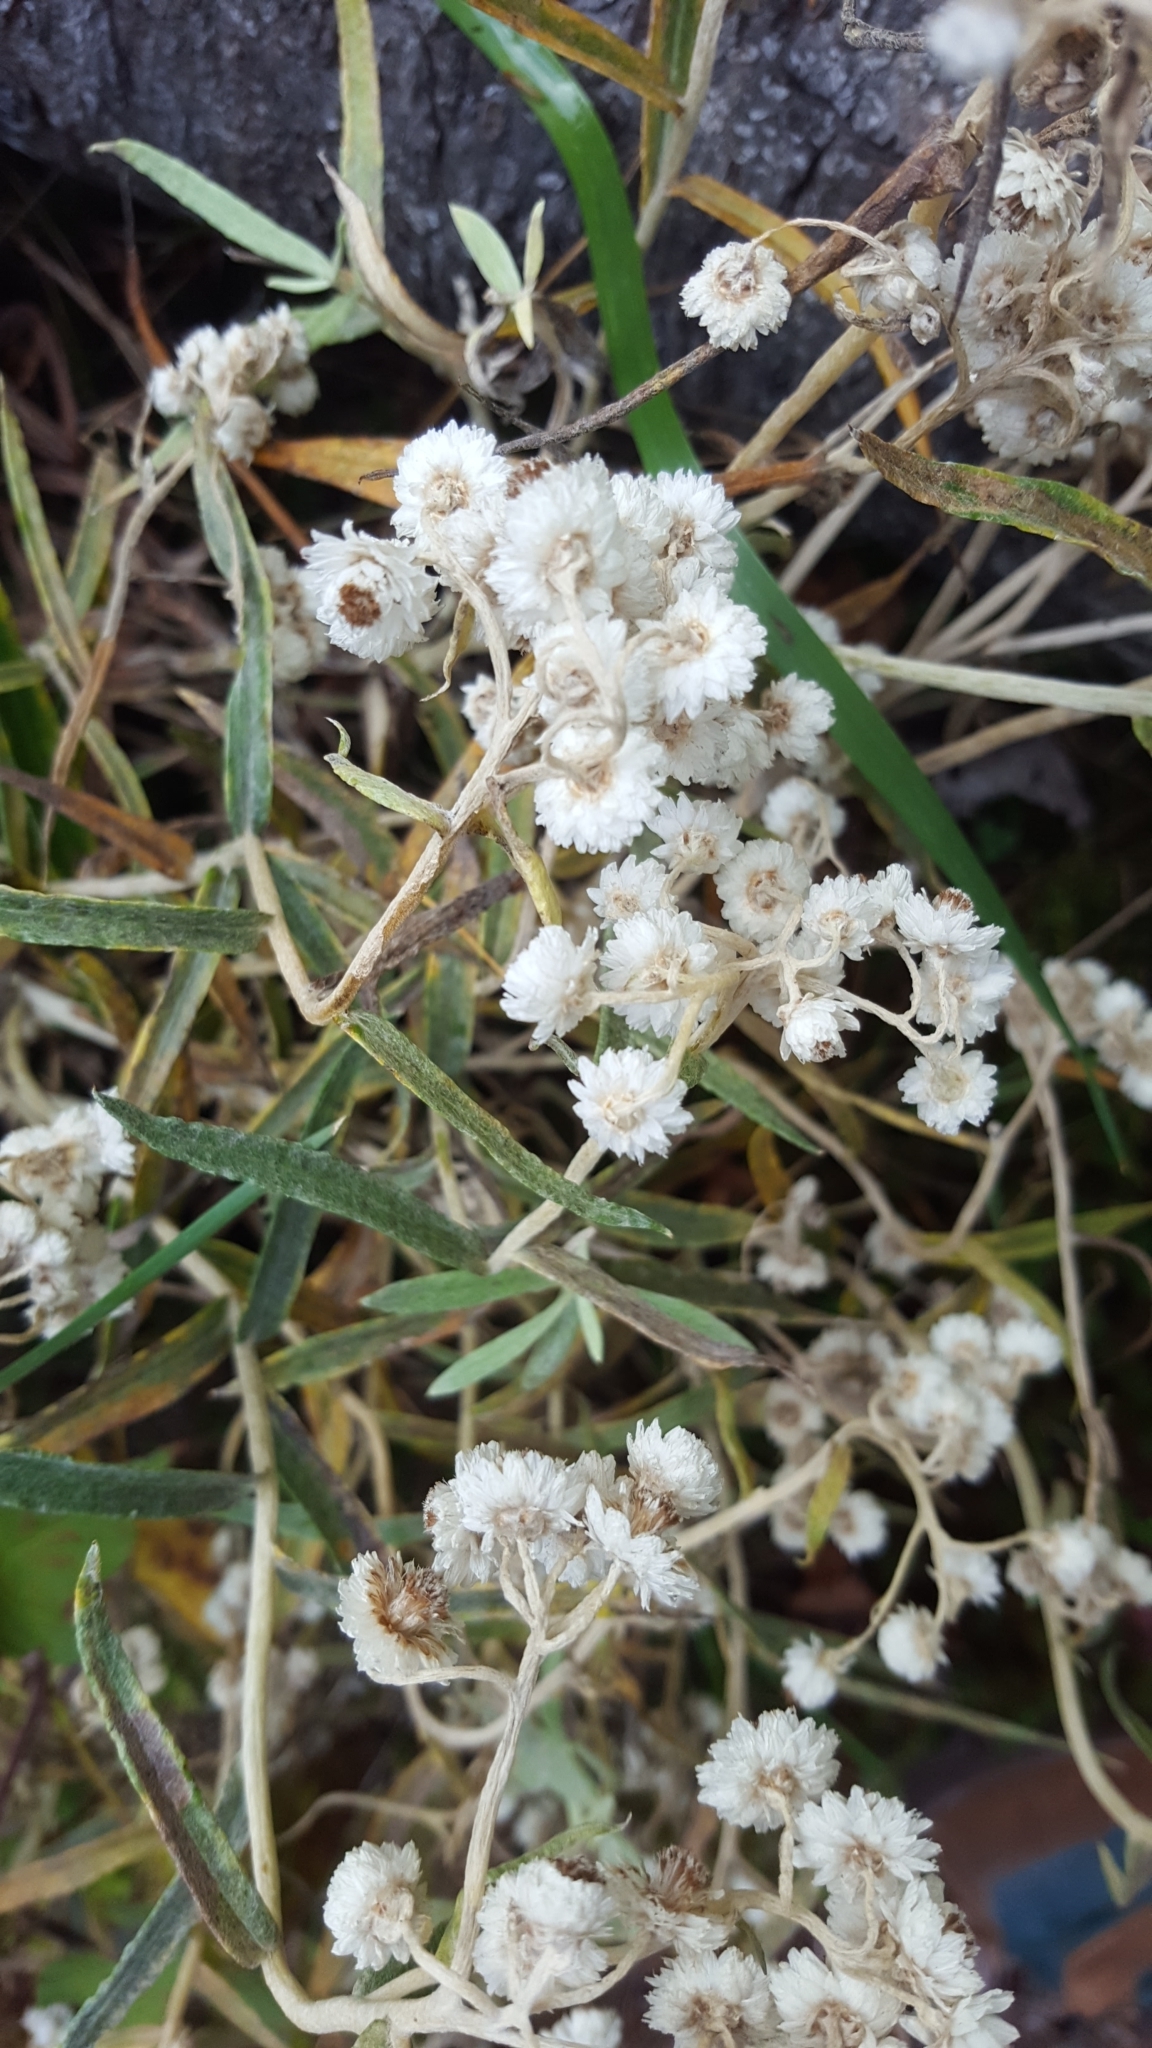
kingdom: Plantae
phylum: Tracheophyta
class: Magnoliopsida
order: Asterales
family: Asteraceae
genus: Anaphalis
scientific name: Anaphalis margaritacea
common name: Pearly everlasting
